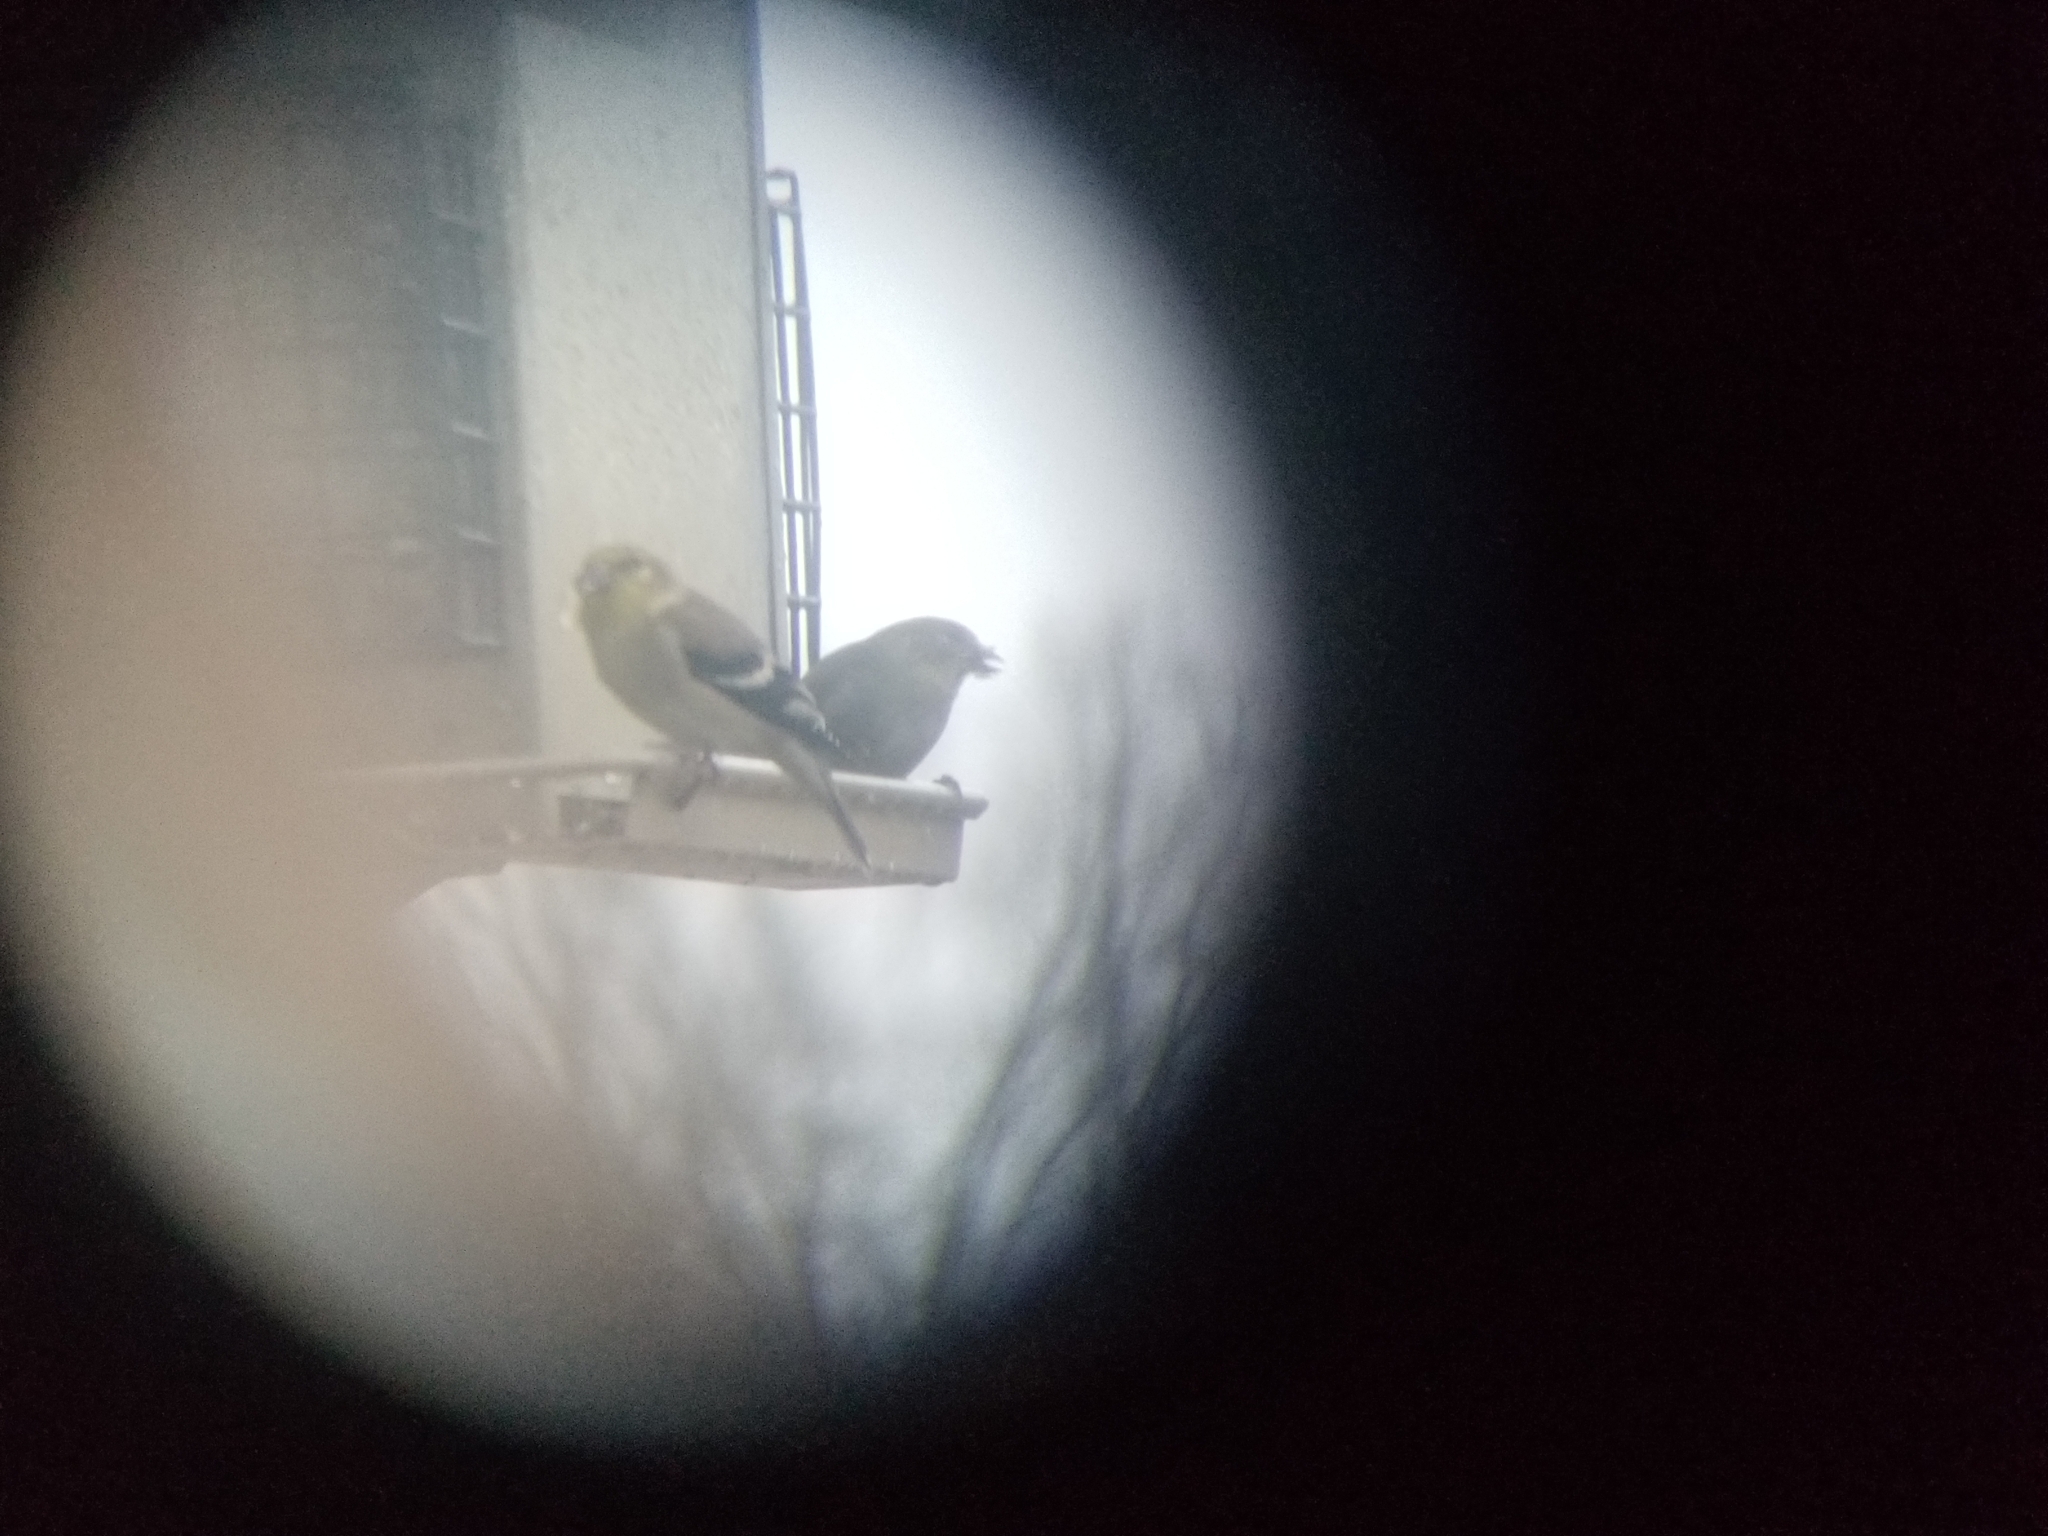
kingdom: Animalia
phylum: Chordata
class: Aves
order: Passeriformes
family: Fringillidae
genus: Spinus
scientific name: Spinus tristis
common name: American goldfinch
